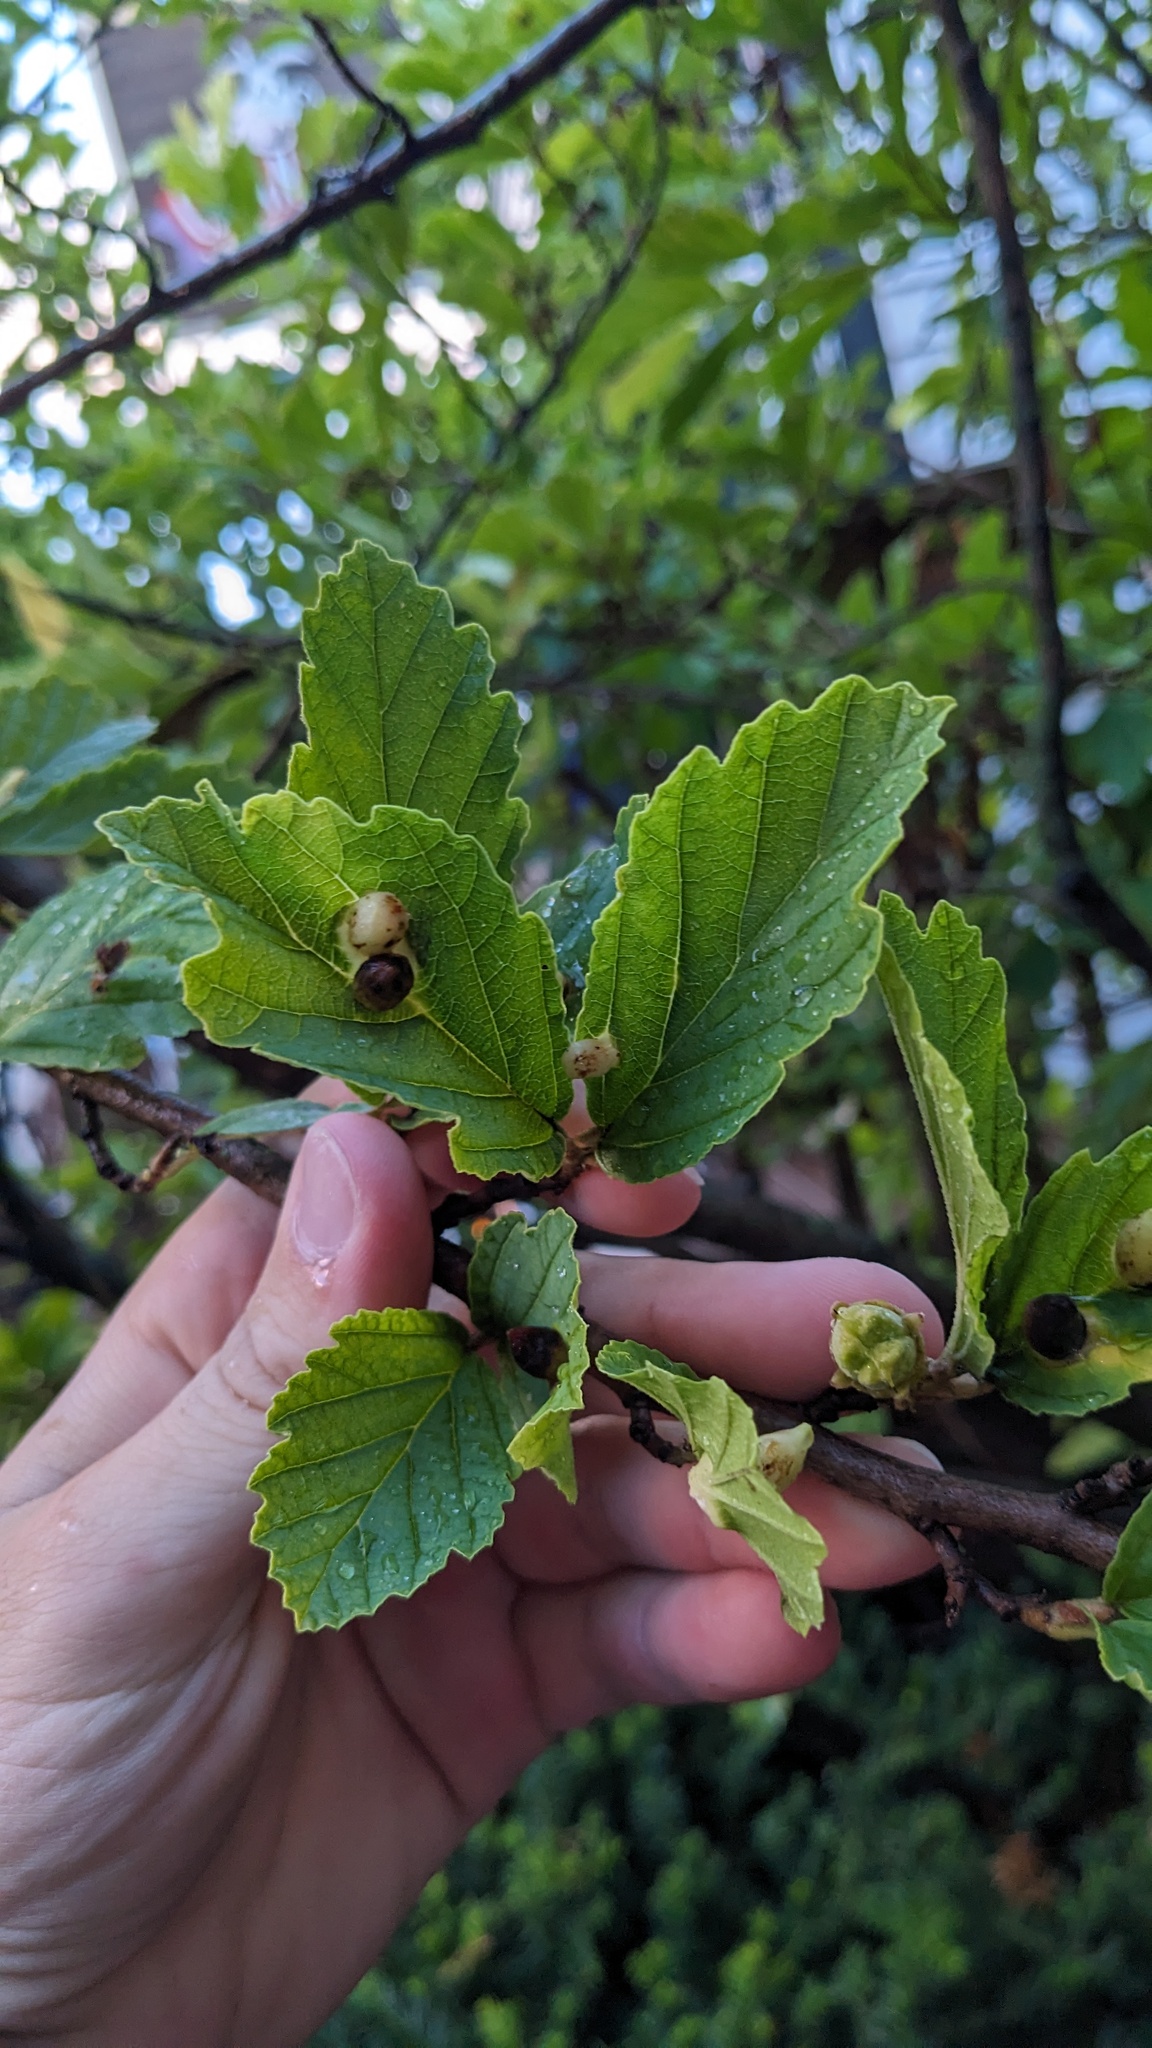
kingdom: Animalia
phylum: Arthropoda
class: Insecta
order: Hemiptera
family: Aphididae
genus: Hormaphis
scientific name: Hormaphis hamamelidis
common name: Witch-hazel cone gall aphid
